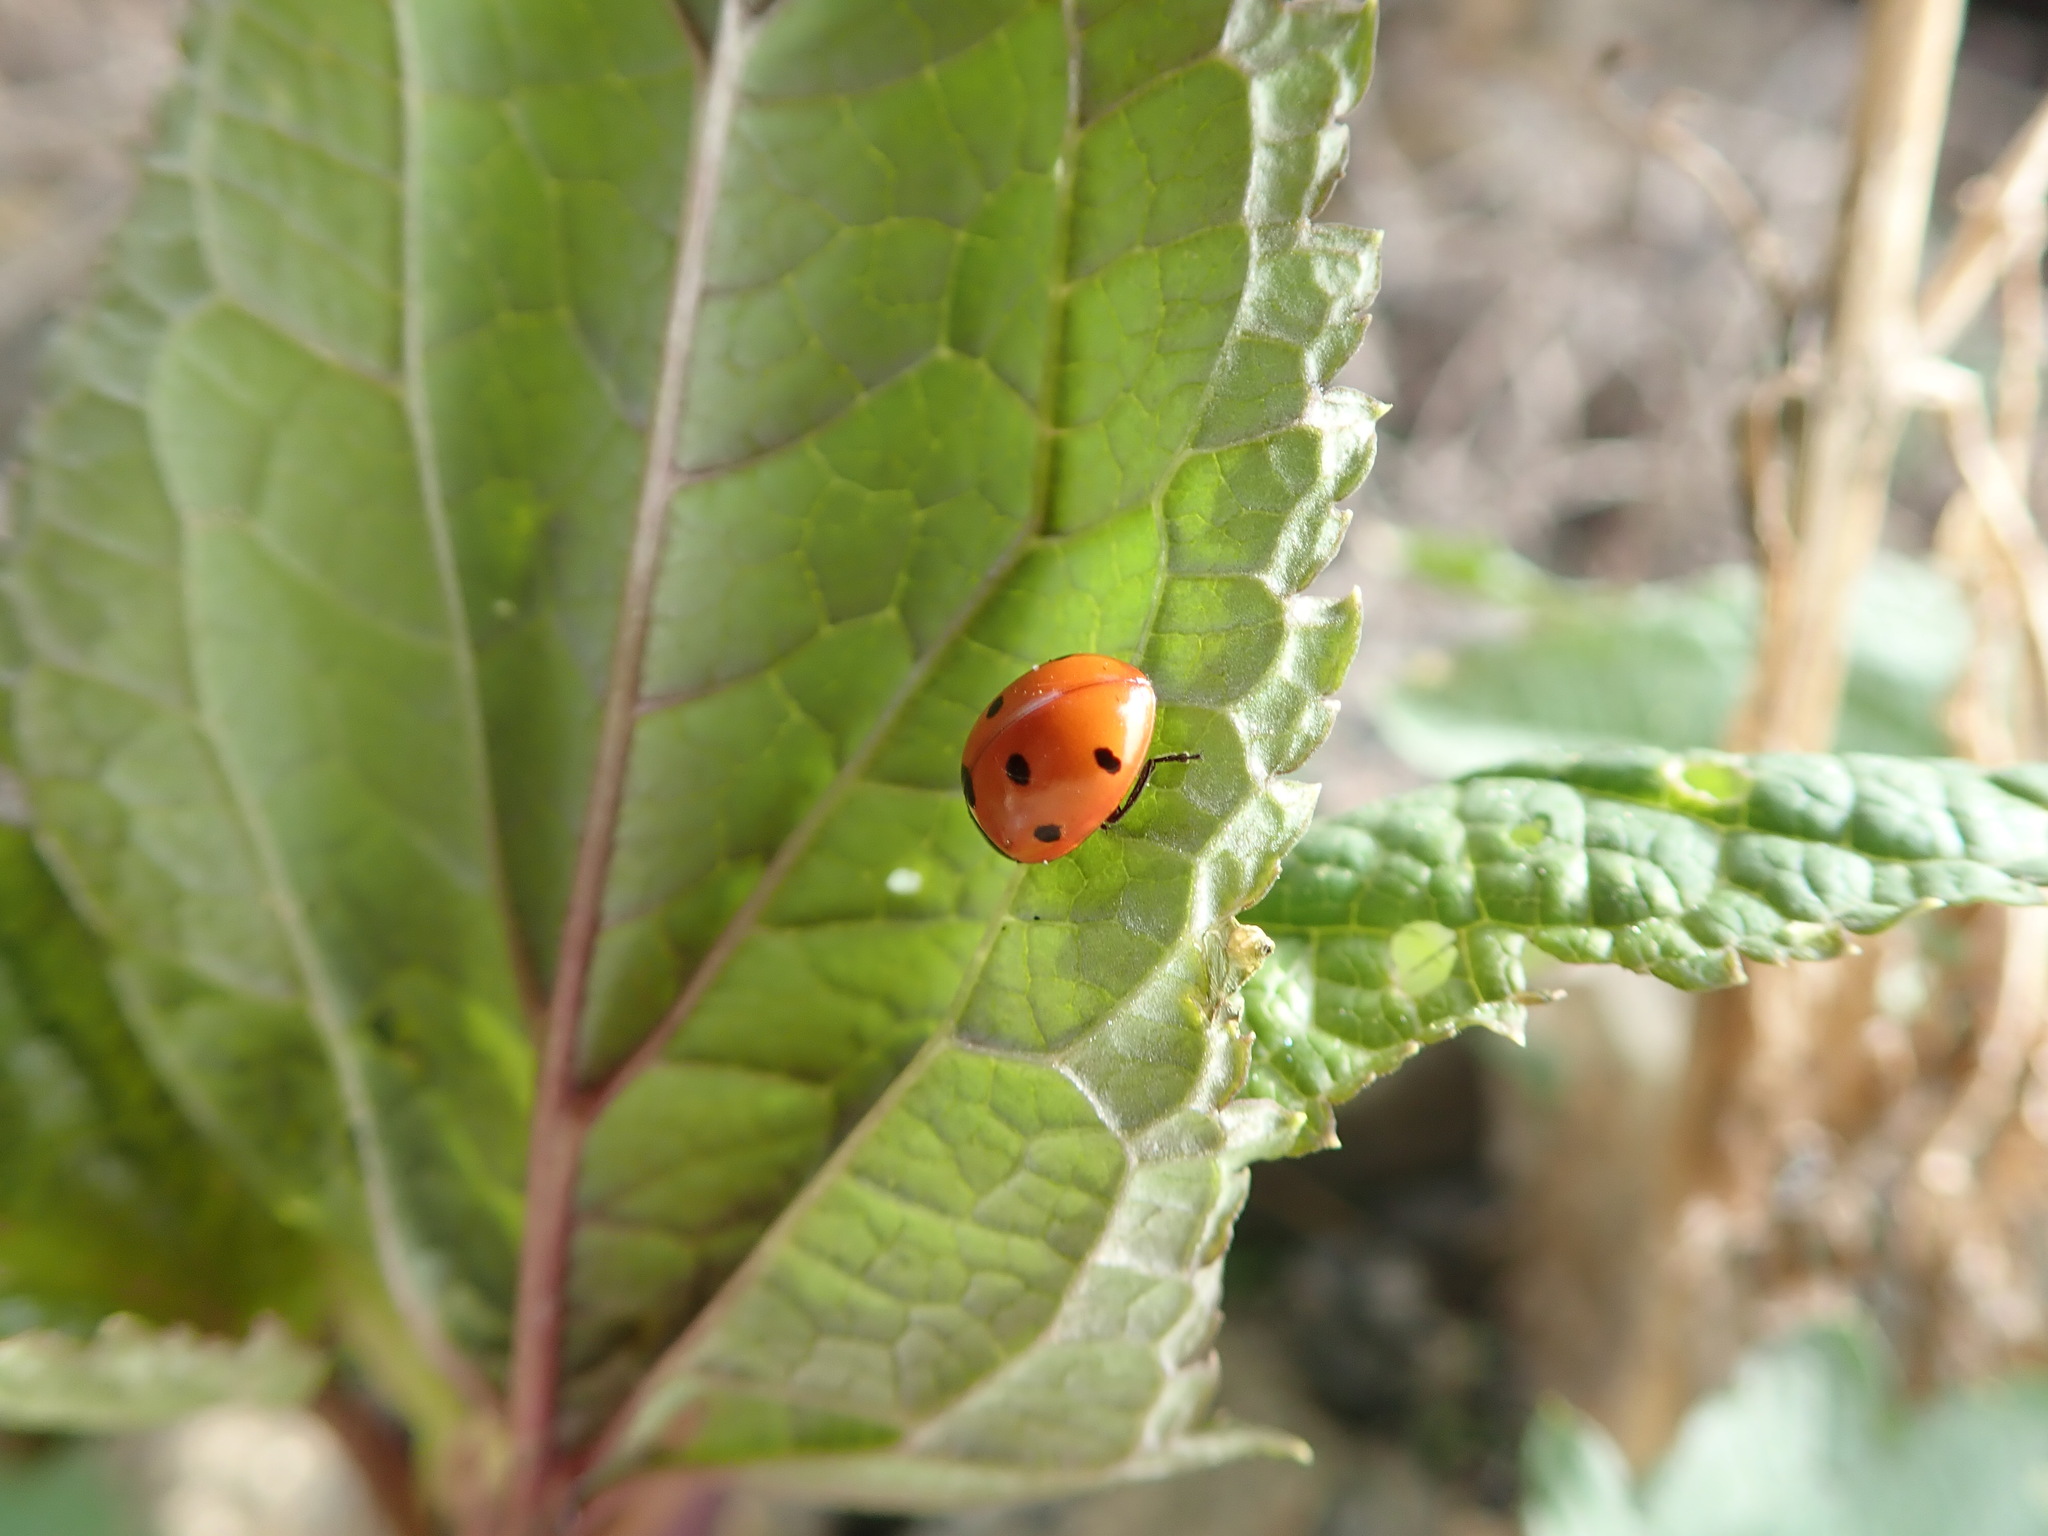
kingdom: Animalia
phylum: Arthropoda
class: Insecta
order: Coleoptera
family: Coccinellidae
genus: Coccinella
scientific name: Coccinella septempunctata
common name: Sevenspotted lady beetle
